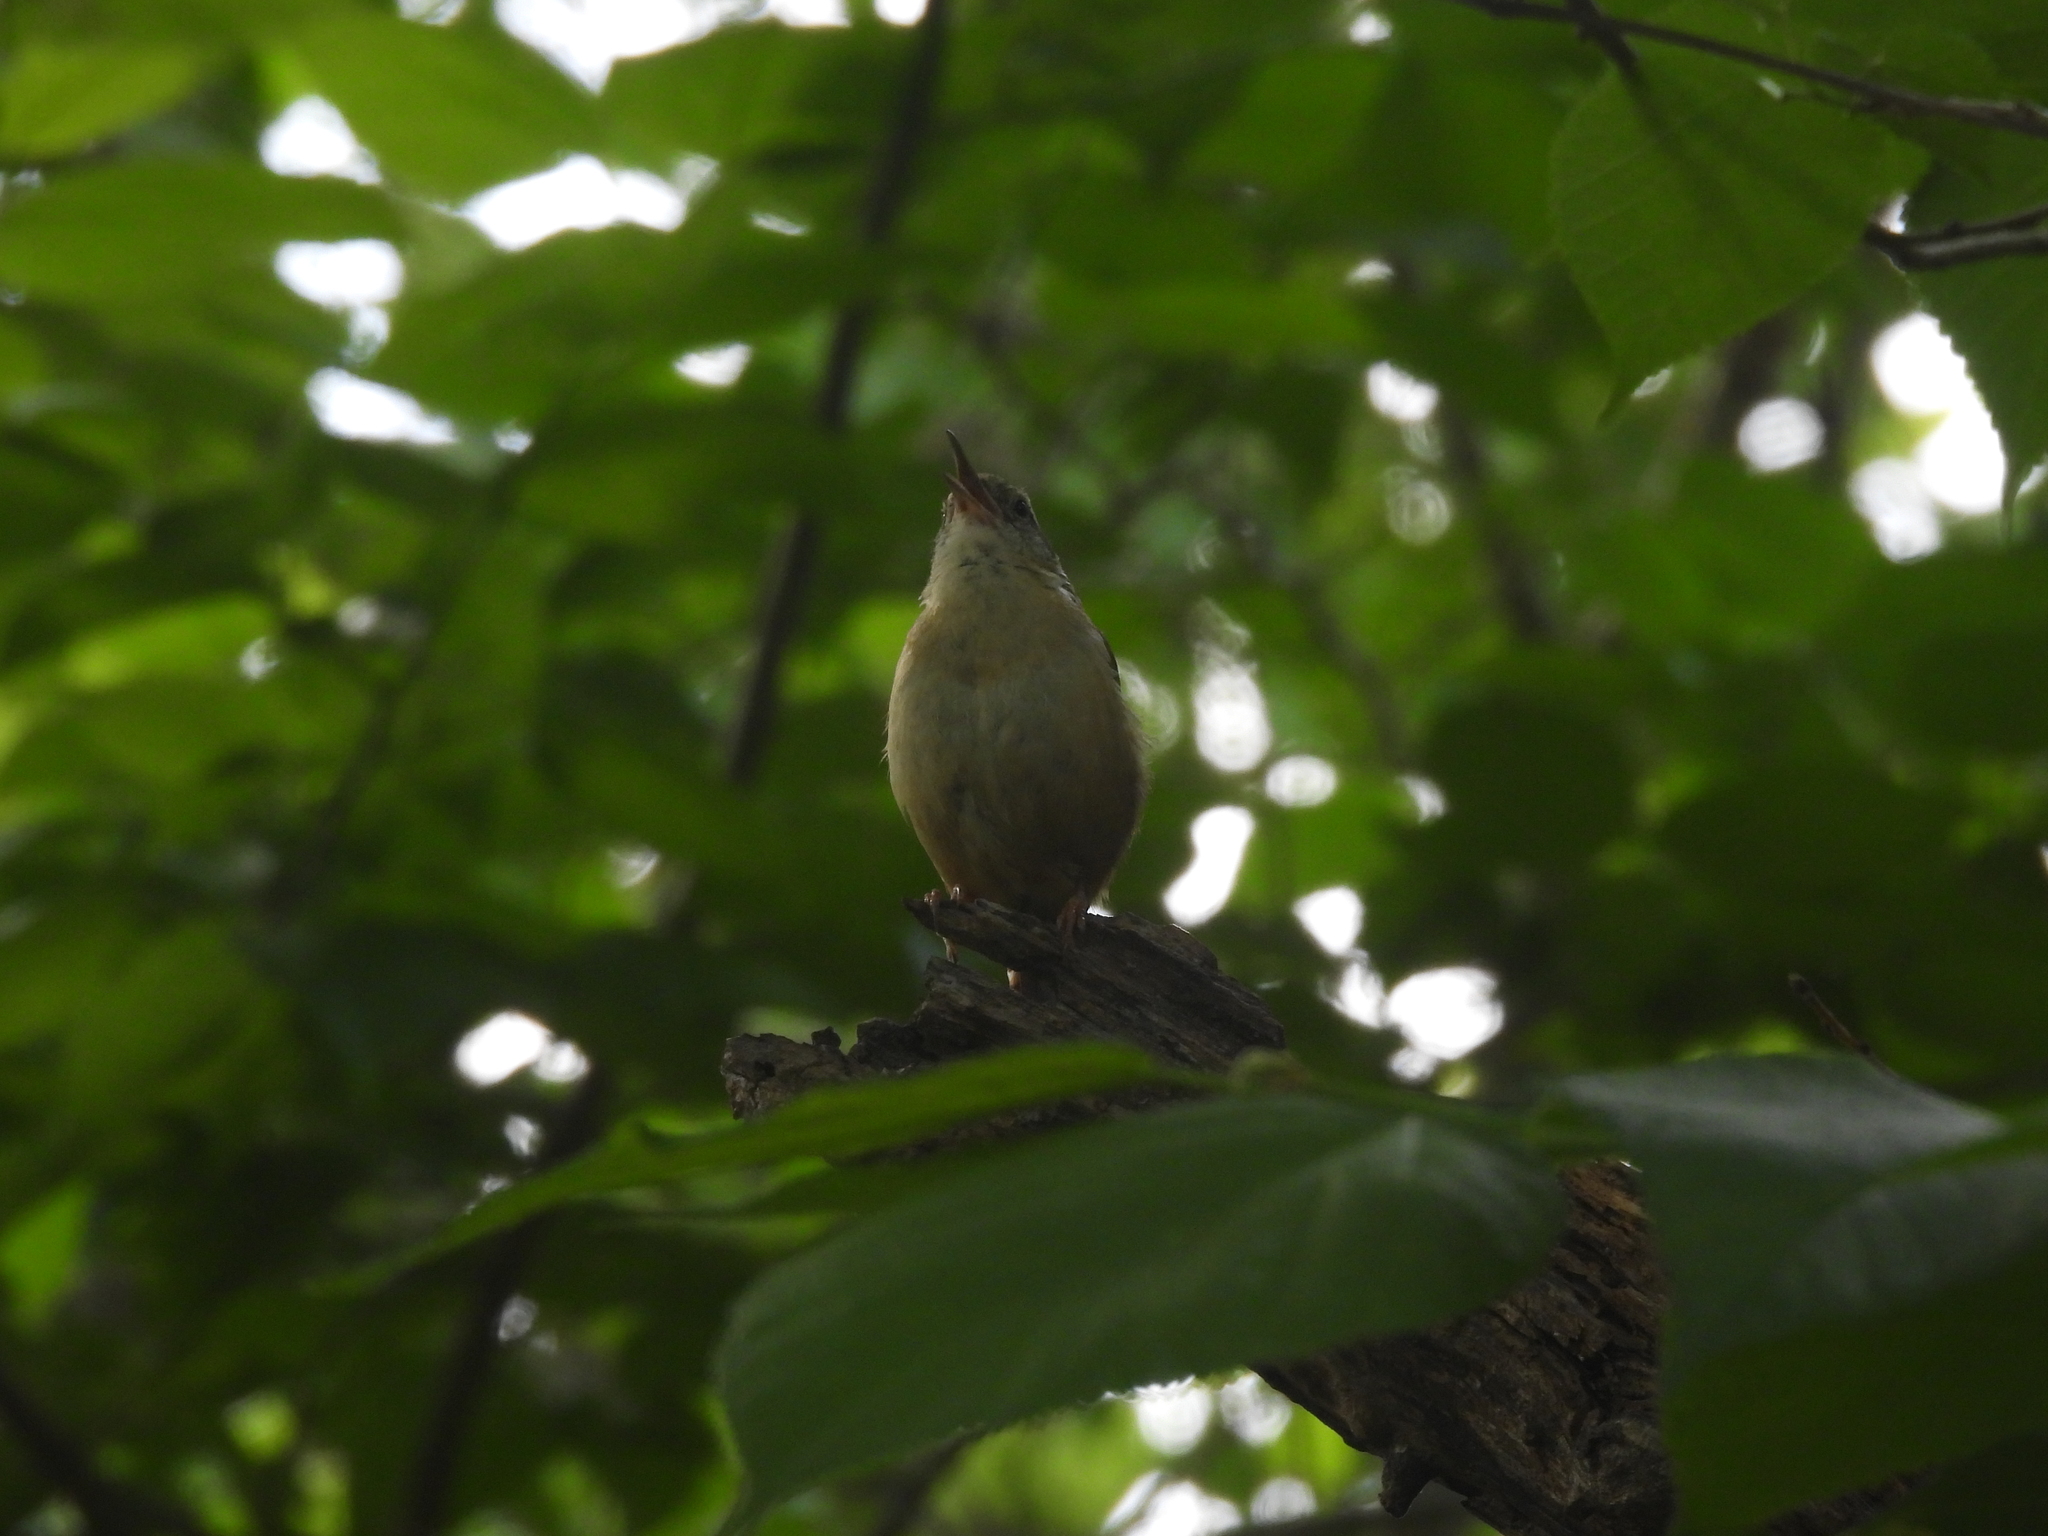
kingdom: Animalia
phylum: Chordata
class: Aves
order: Passeriformes
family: Troglodytidae
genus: Thryothorus
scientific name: Thryothorus ludovicianus
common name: Carolina wren
